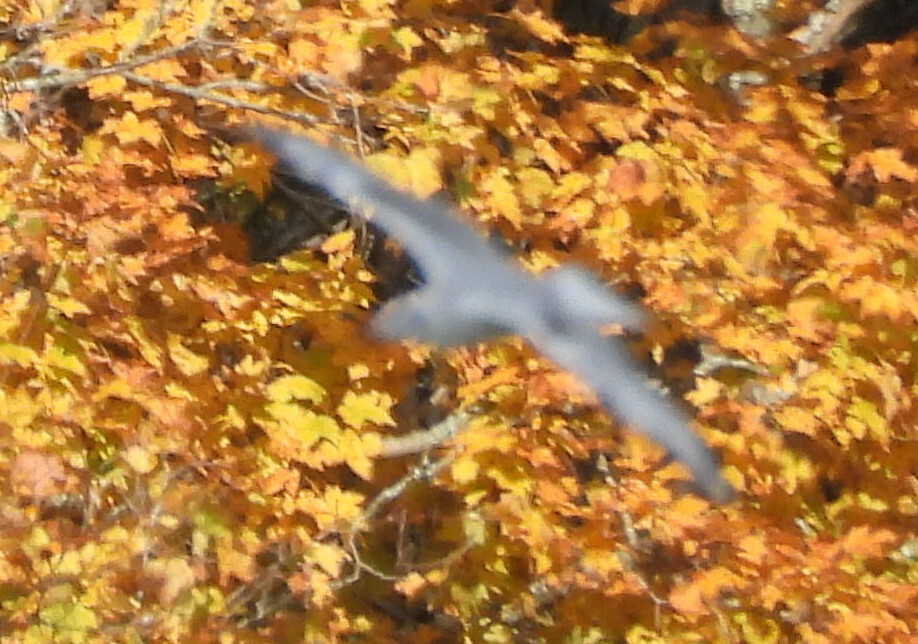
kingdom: Animalia
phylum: Chordata
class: Aves
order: Charadriiformes
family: Laridae
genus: Chroicocephalus
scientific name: Chroicocephalus philadelphia
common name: Bonaparte's gull
